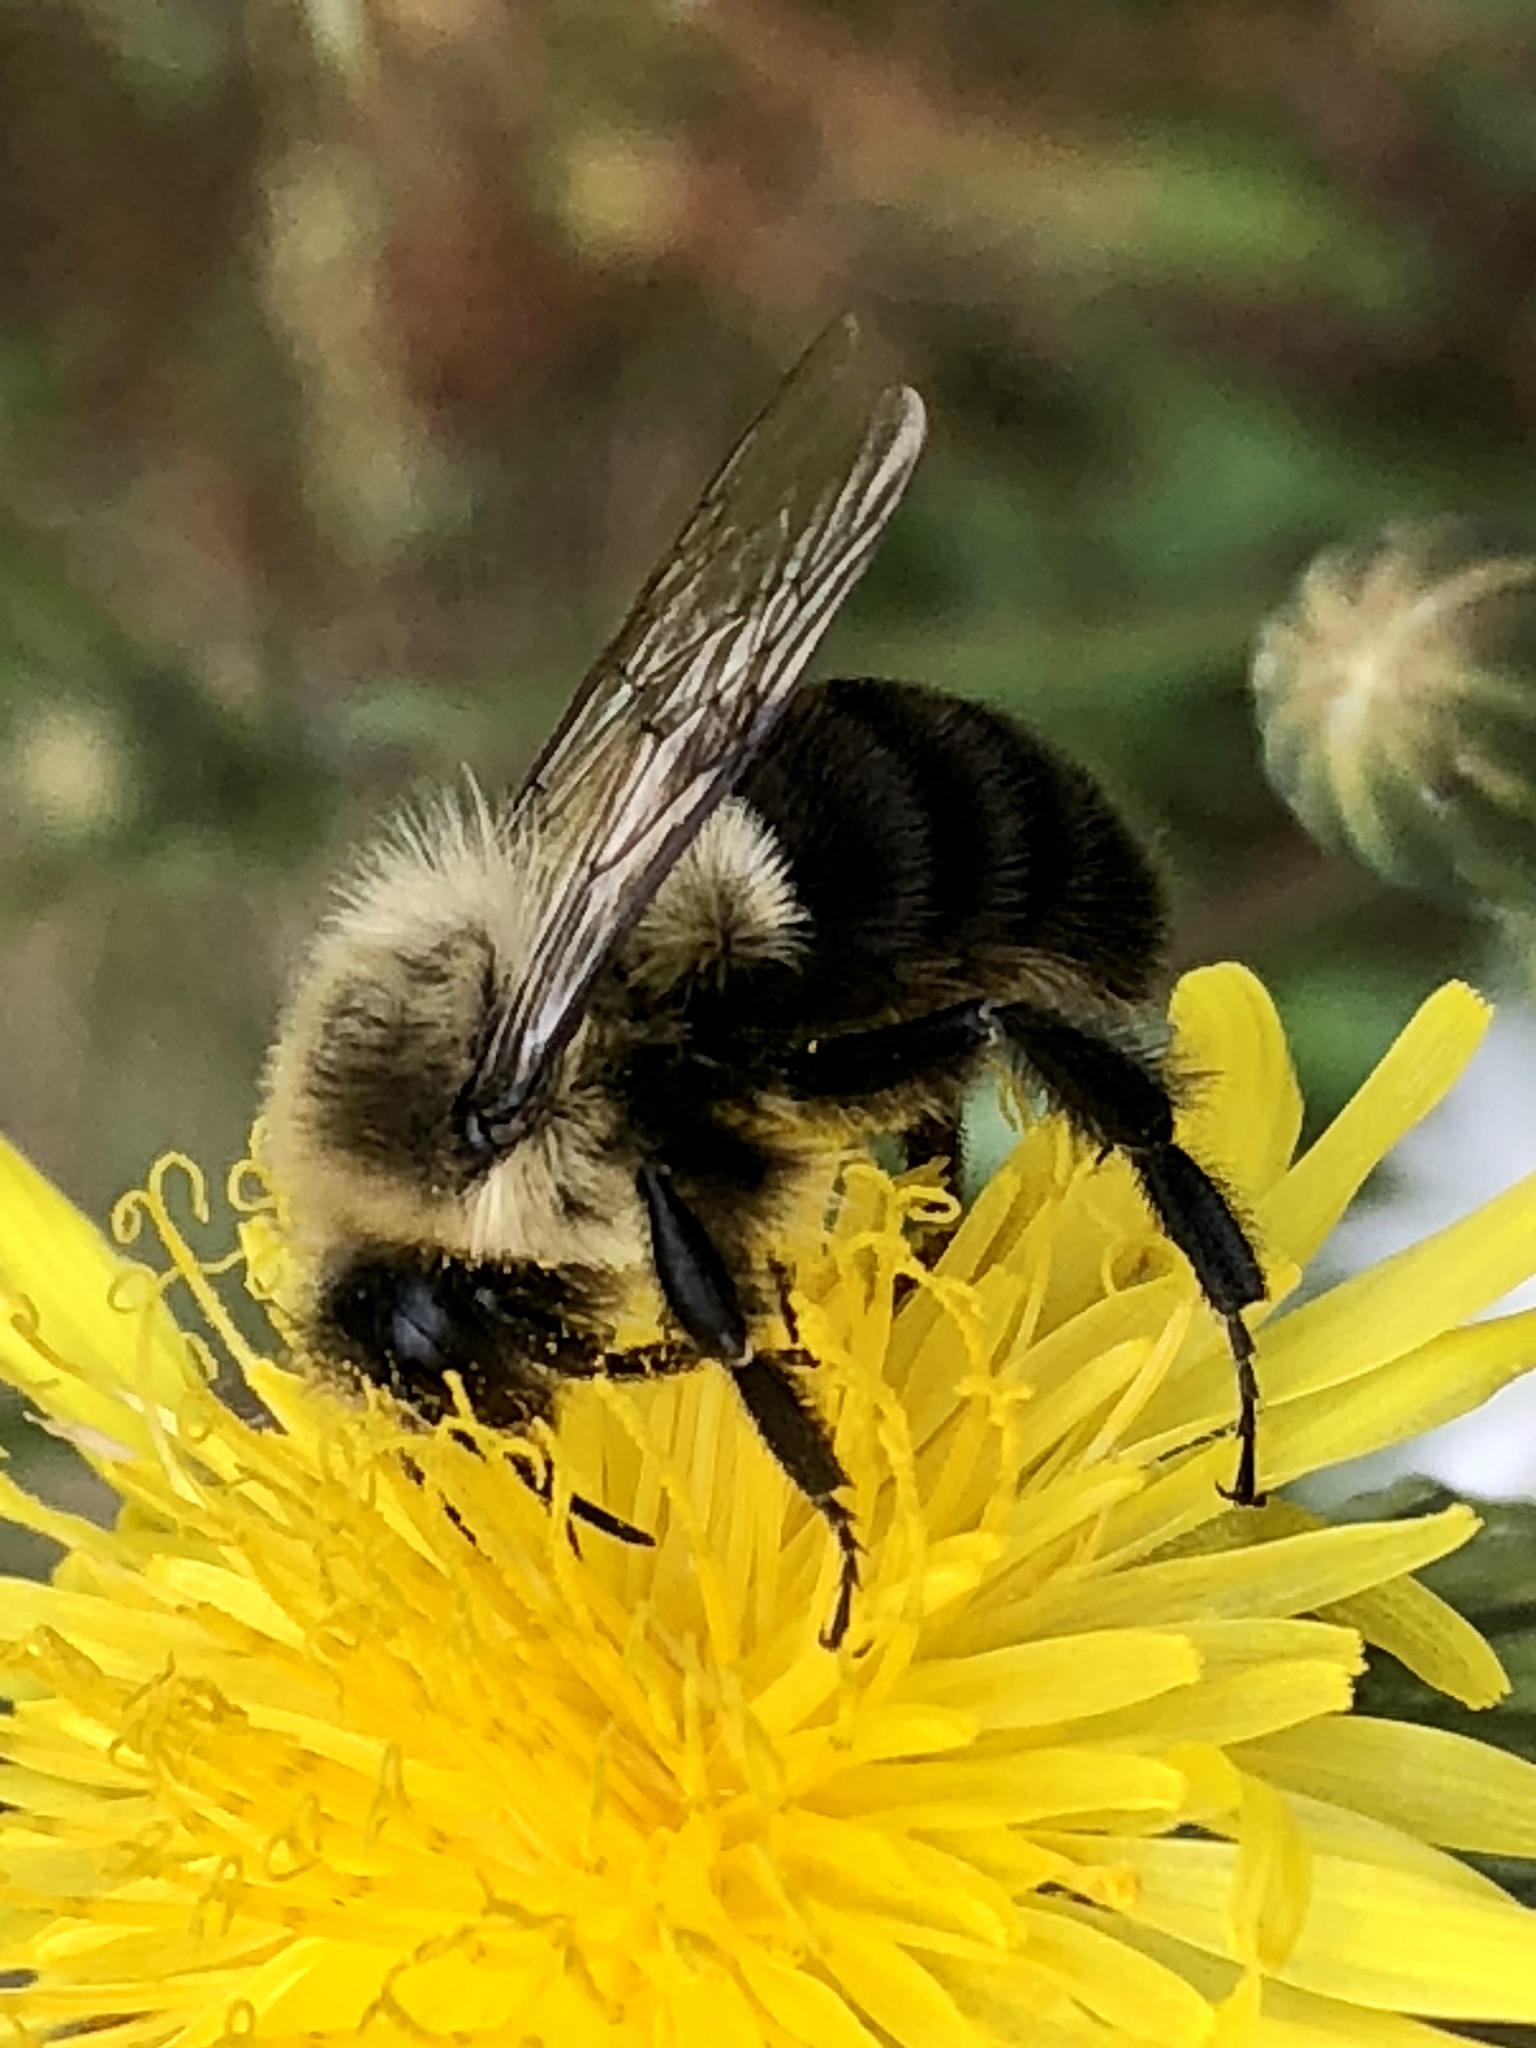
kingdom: Animalia
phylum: Arthropoda
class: Insecta
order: Hymenoptera
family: Apidae
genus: Bombus
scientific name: Bombus impatiens
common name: Common eastern bumble bee
